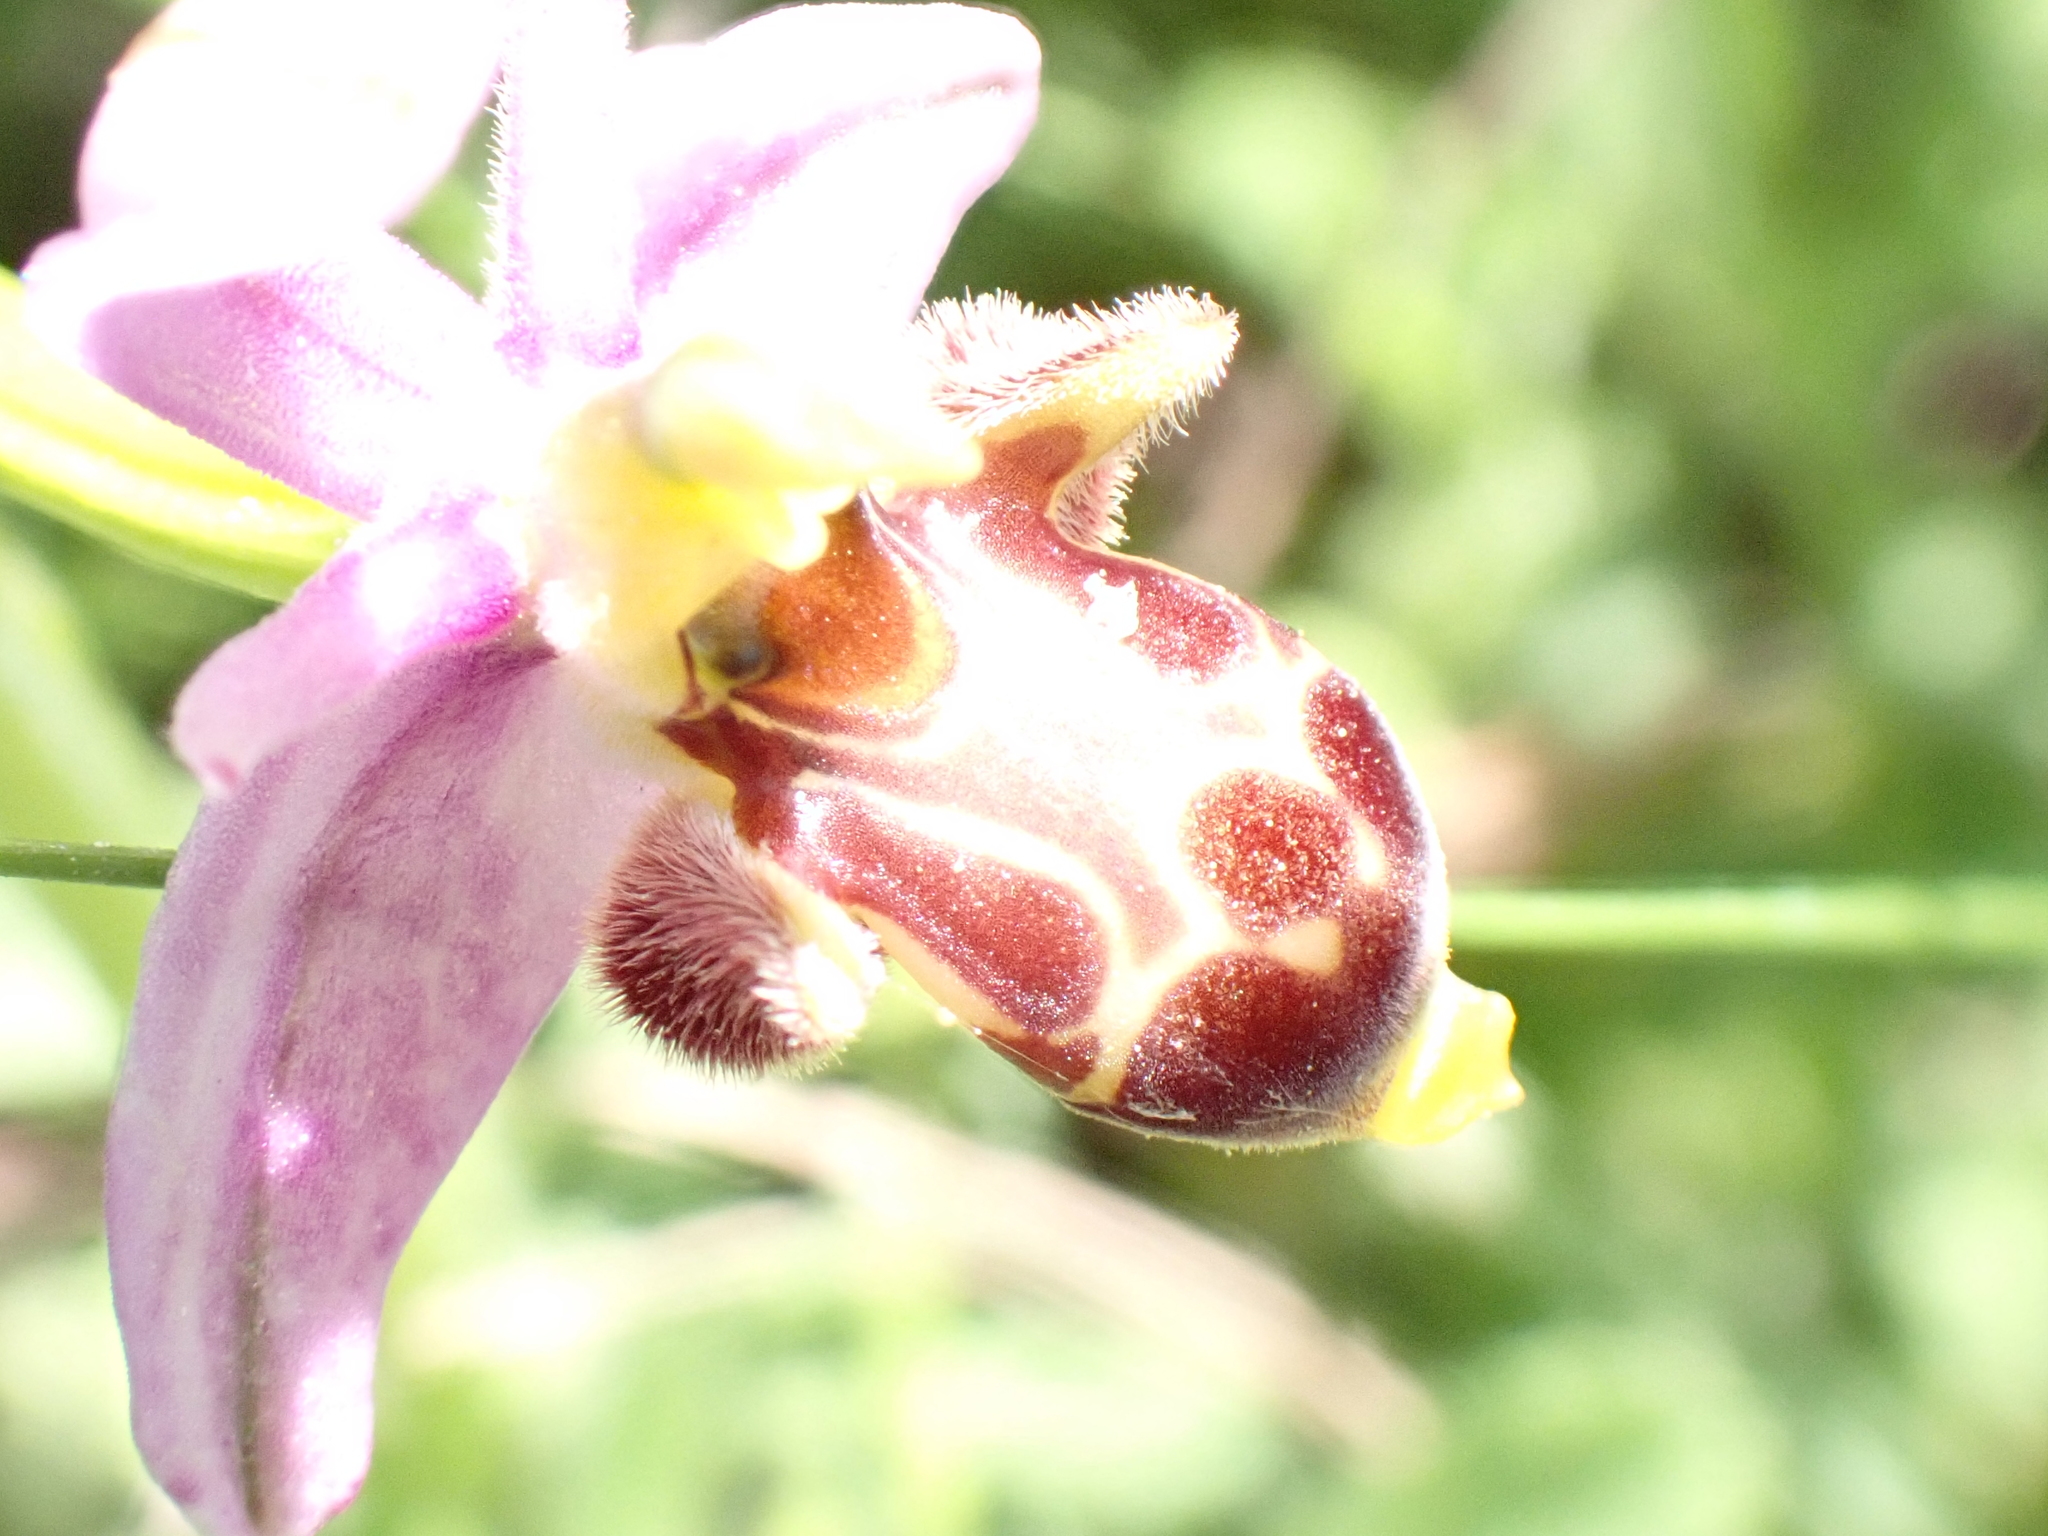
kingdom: Plantae
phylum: Tracheophyta
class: Liliopsida
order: Asparagales
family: Orchidaceae
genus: Ophrys
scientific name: Ophrys scolopax
